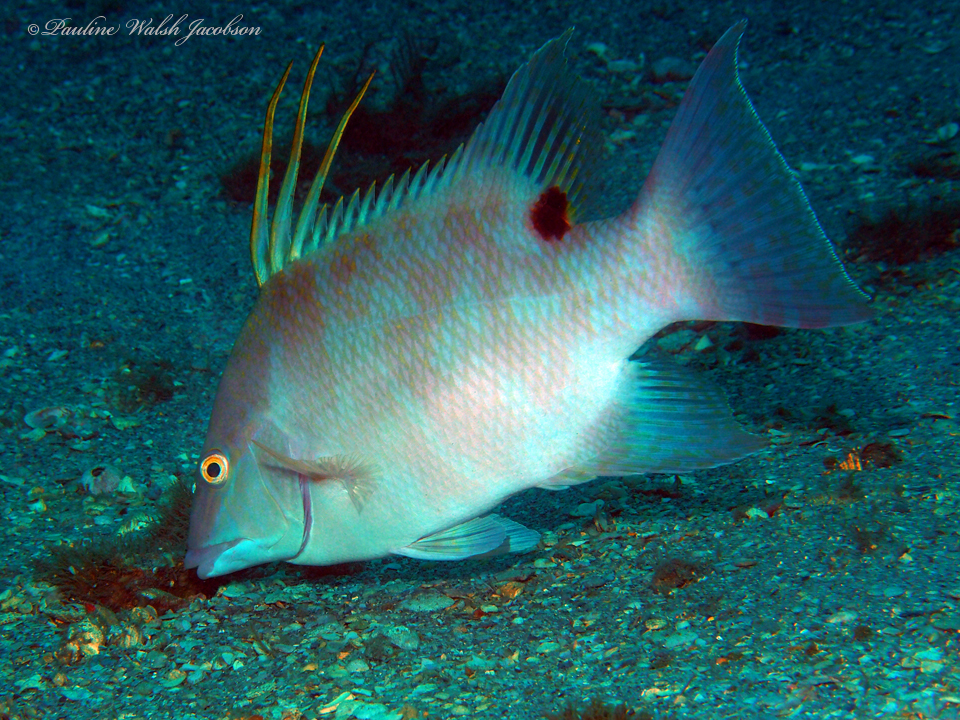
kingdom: Animalia
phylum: Chordata
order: Perciformes
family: Labridae
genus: Lachnolaimus
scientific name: Lachnolaimus maximus
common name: Hogfish
